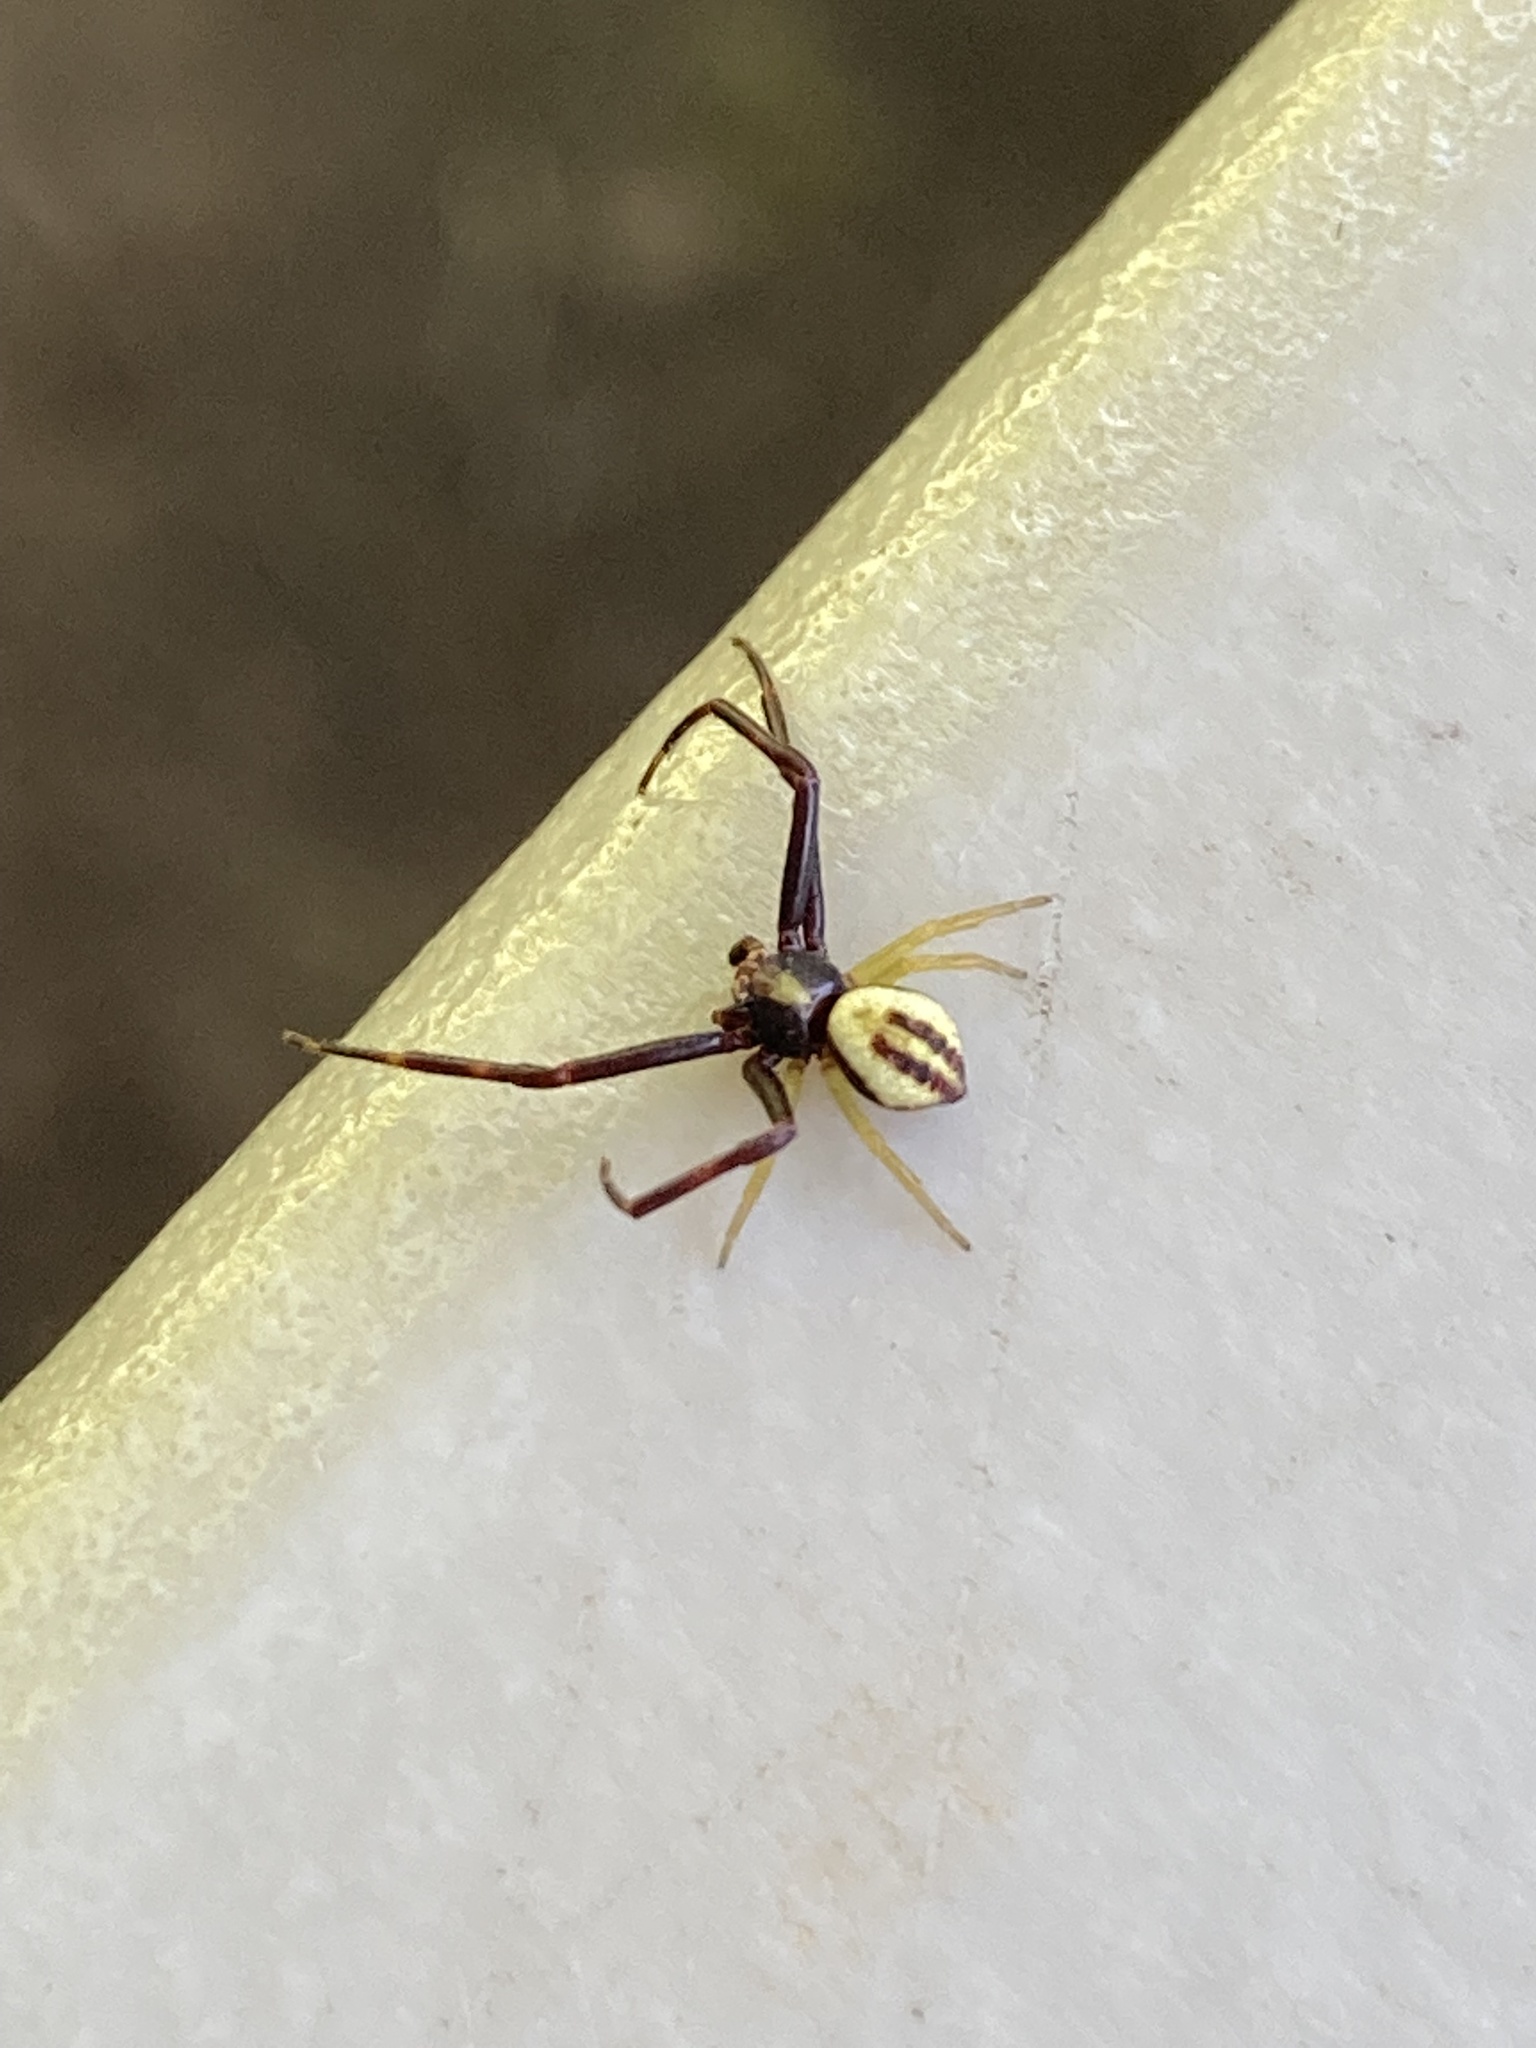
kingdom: Animalia
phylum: Arthropoda
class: Arachnida
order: Araneae
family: Thomisidae
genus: Misumena
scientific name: Misumena vatia
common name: Goldenrod crab spider
